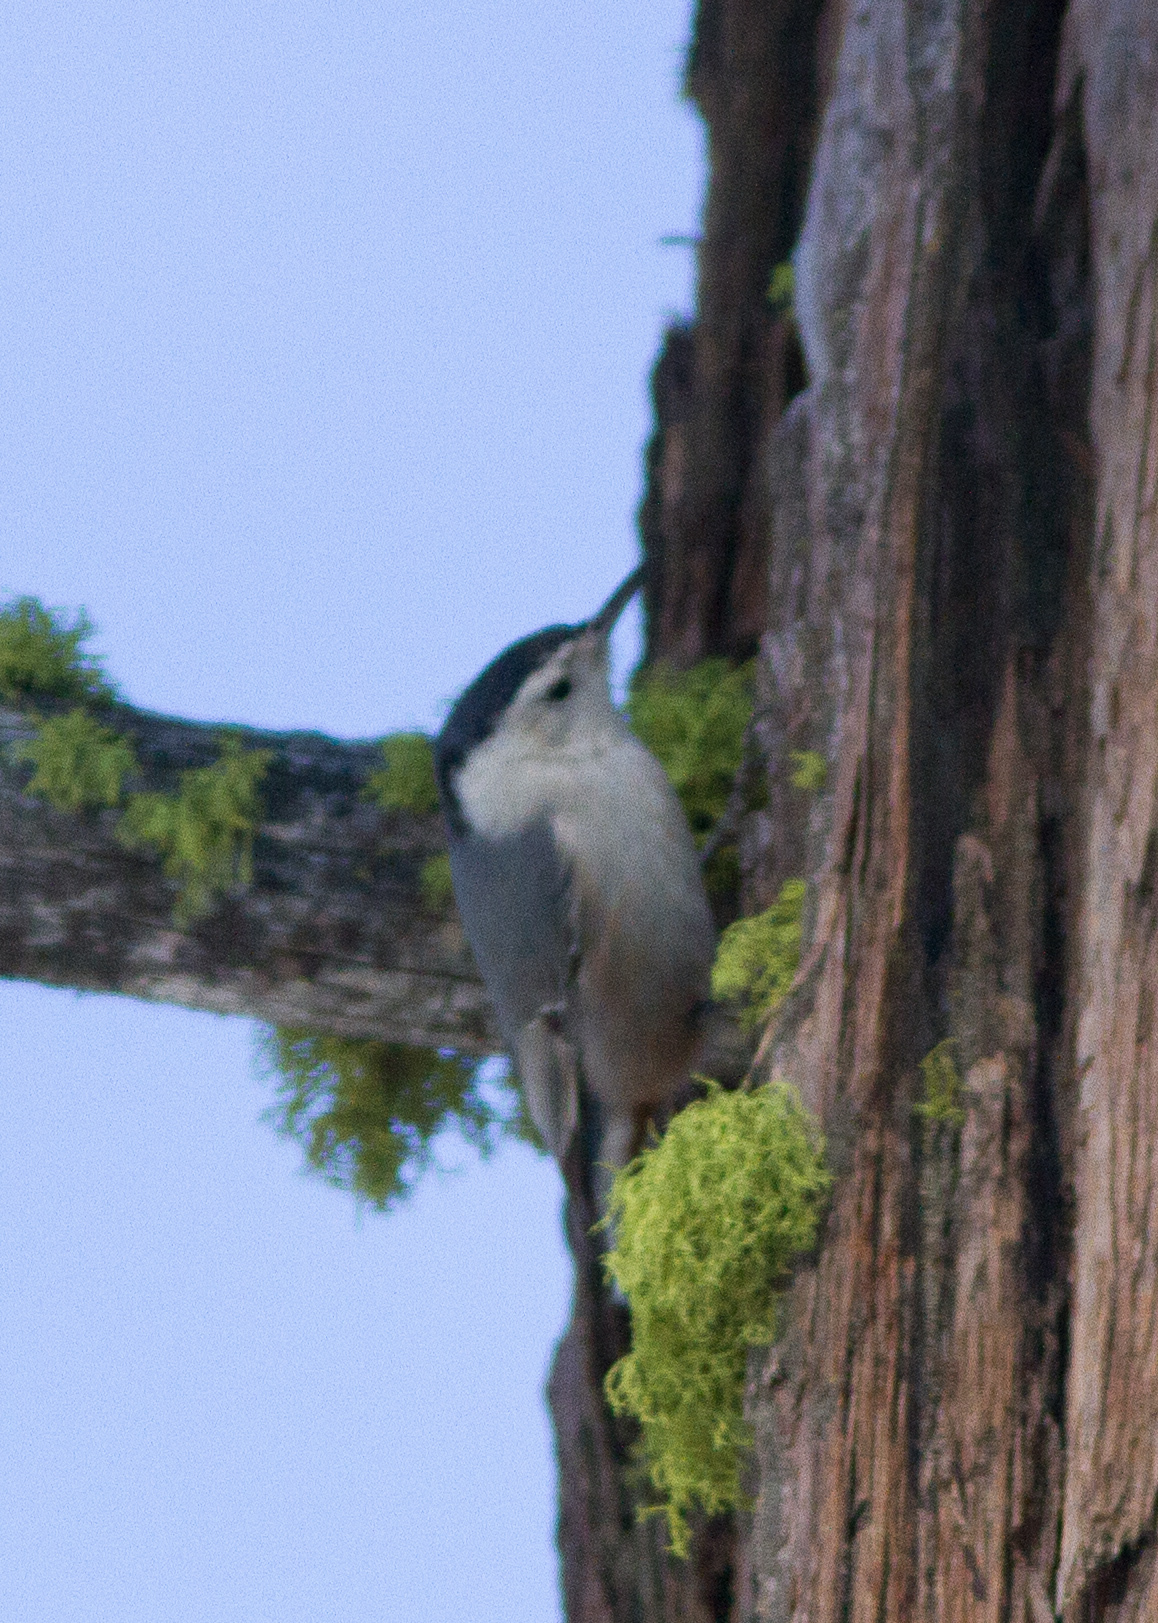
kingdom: Animalia
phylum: Chordata
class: Aves
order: Passeriformes
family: Sittidae
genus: Sitta
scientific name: Sitta carolinensis
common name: White-breasted nuthatch
